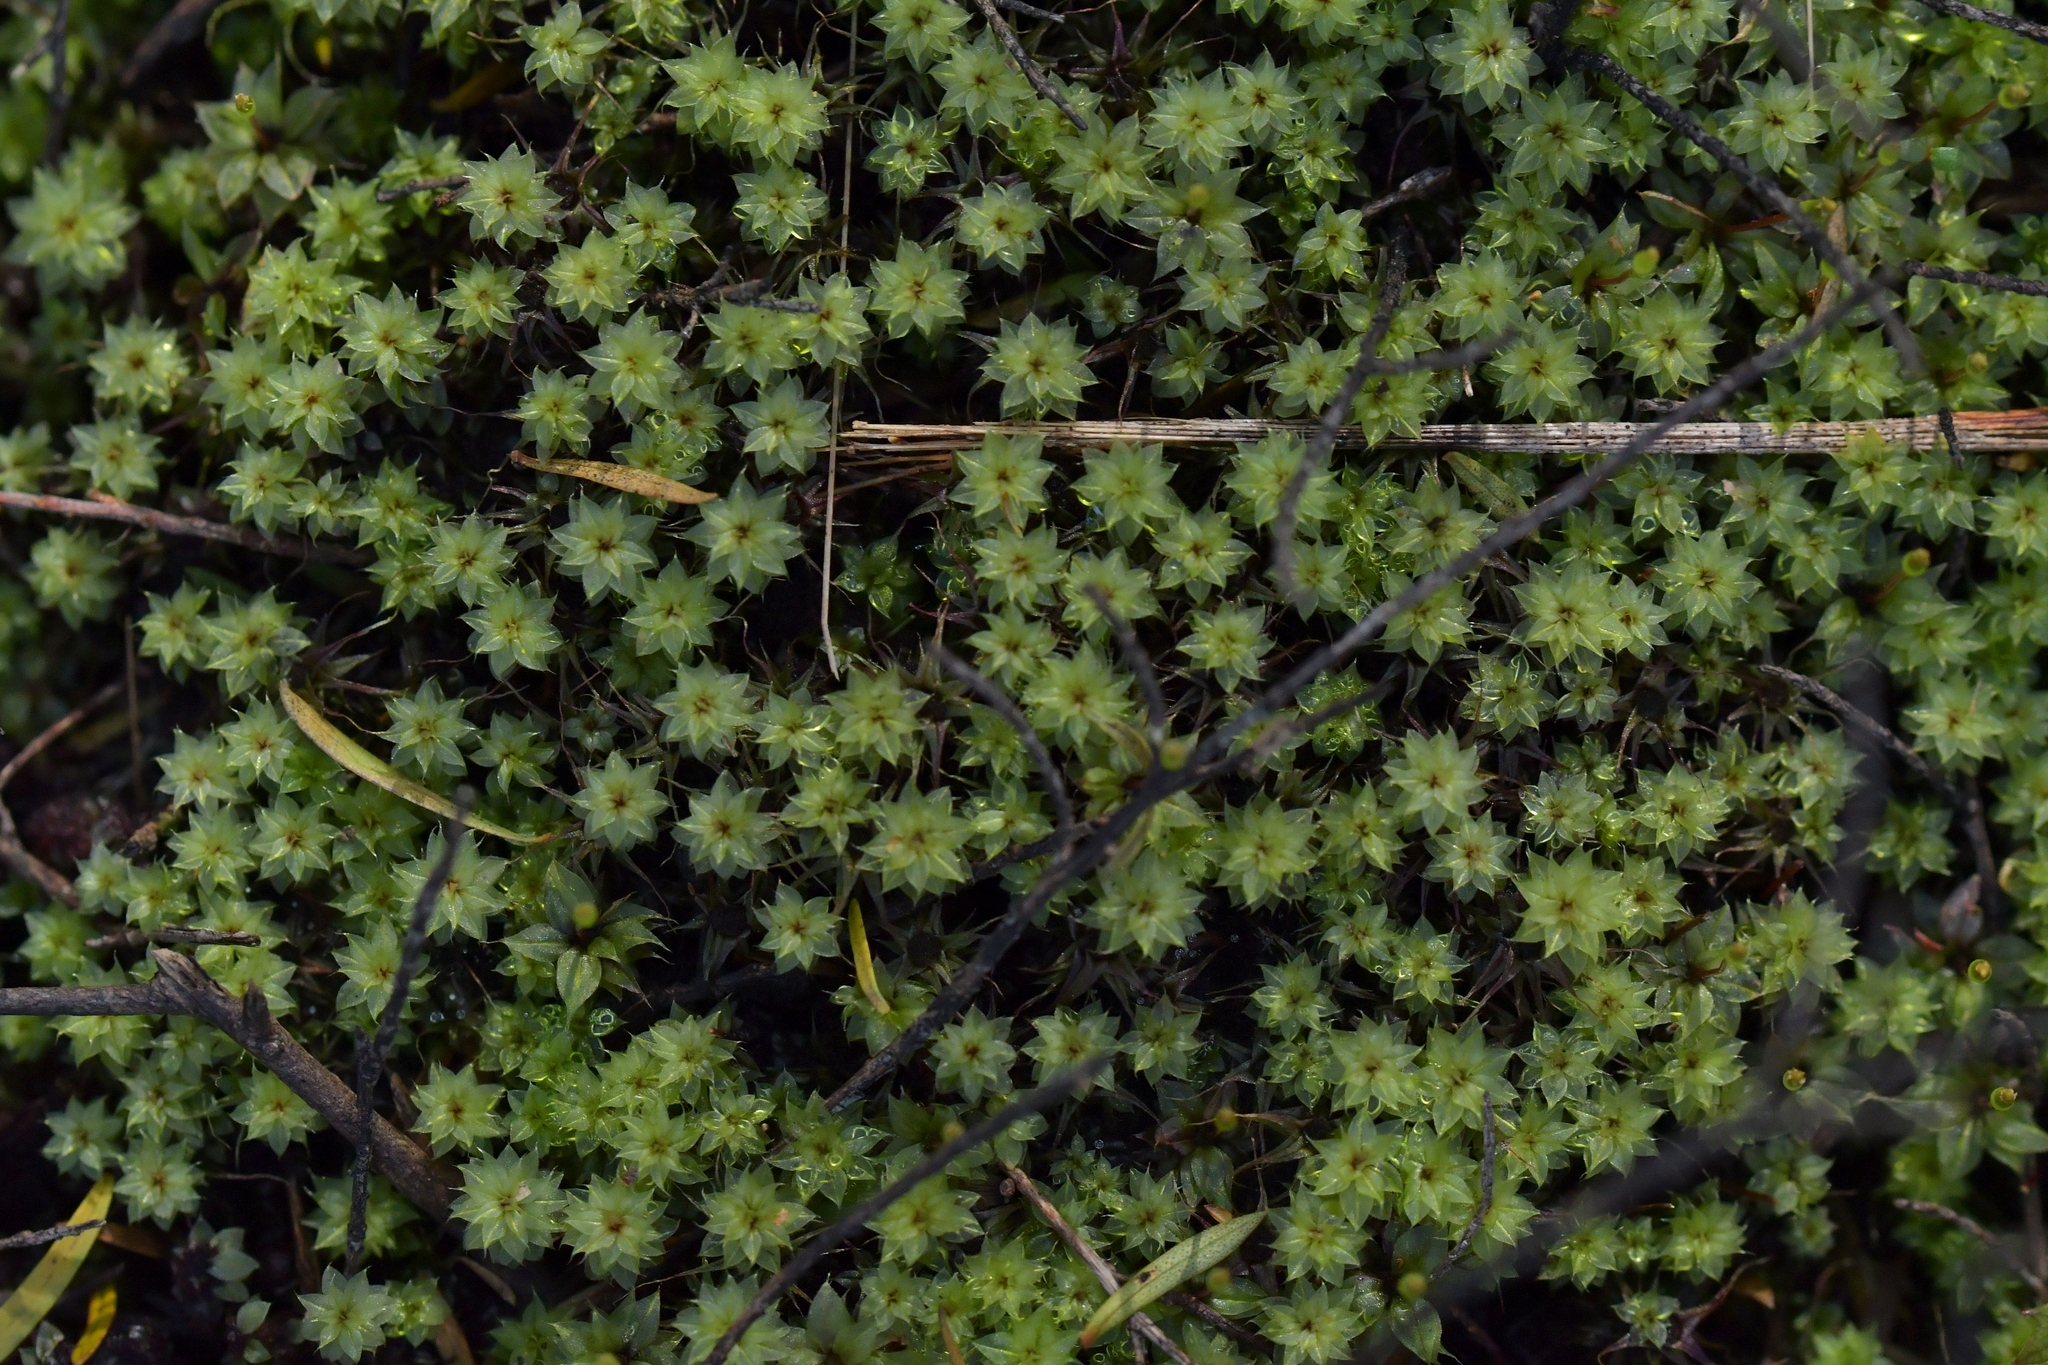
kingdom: Plantae
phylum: Bryophyta
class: Bryopsida
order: Splachnales
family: Splachnaceae
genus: Tayloria
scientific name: Tayloria callophylla
